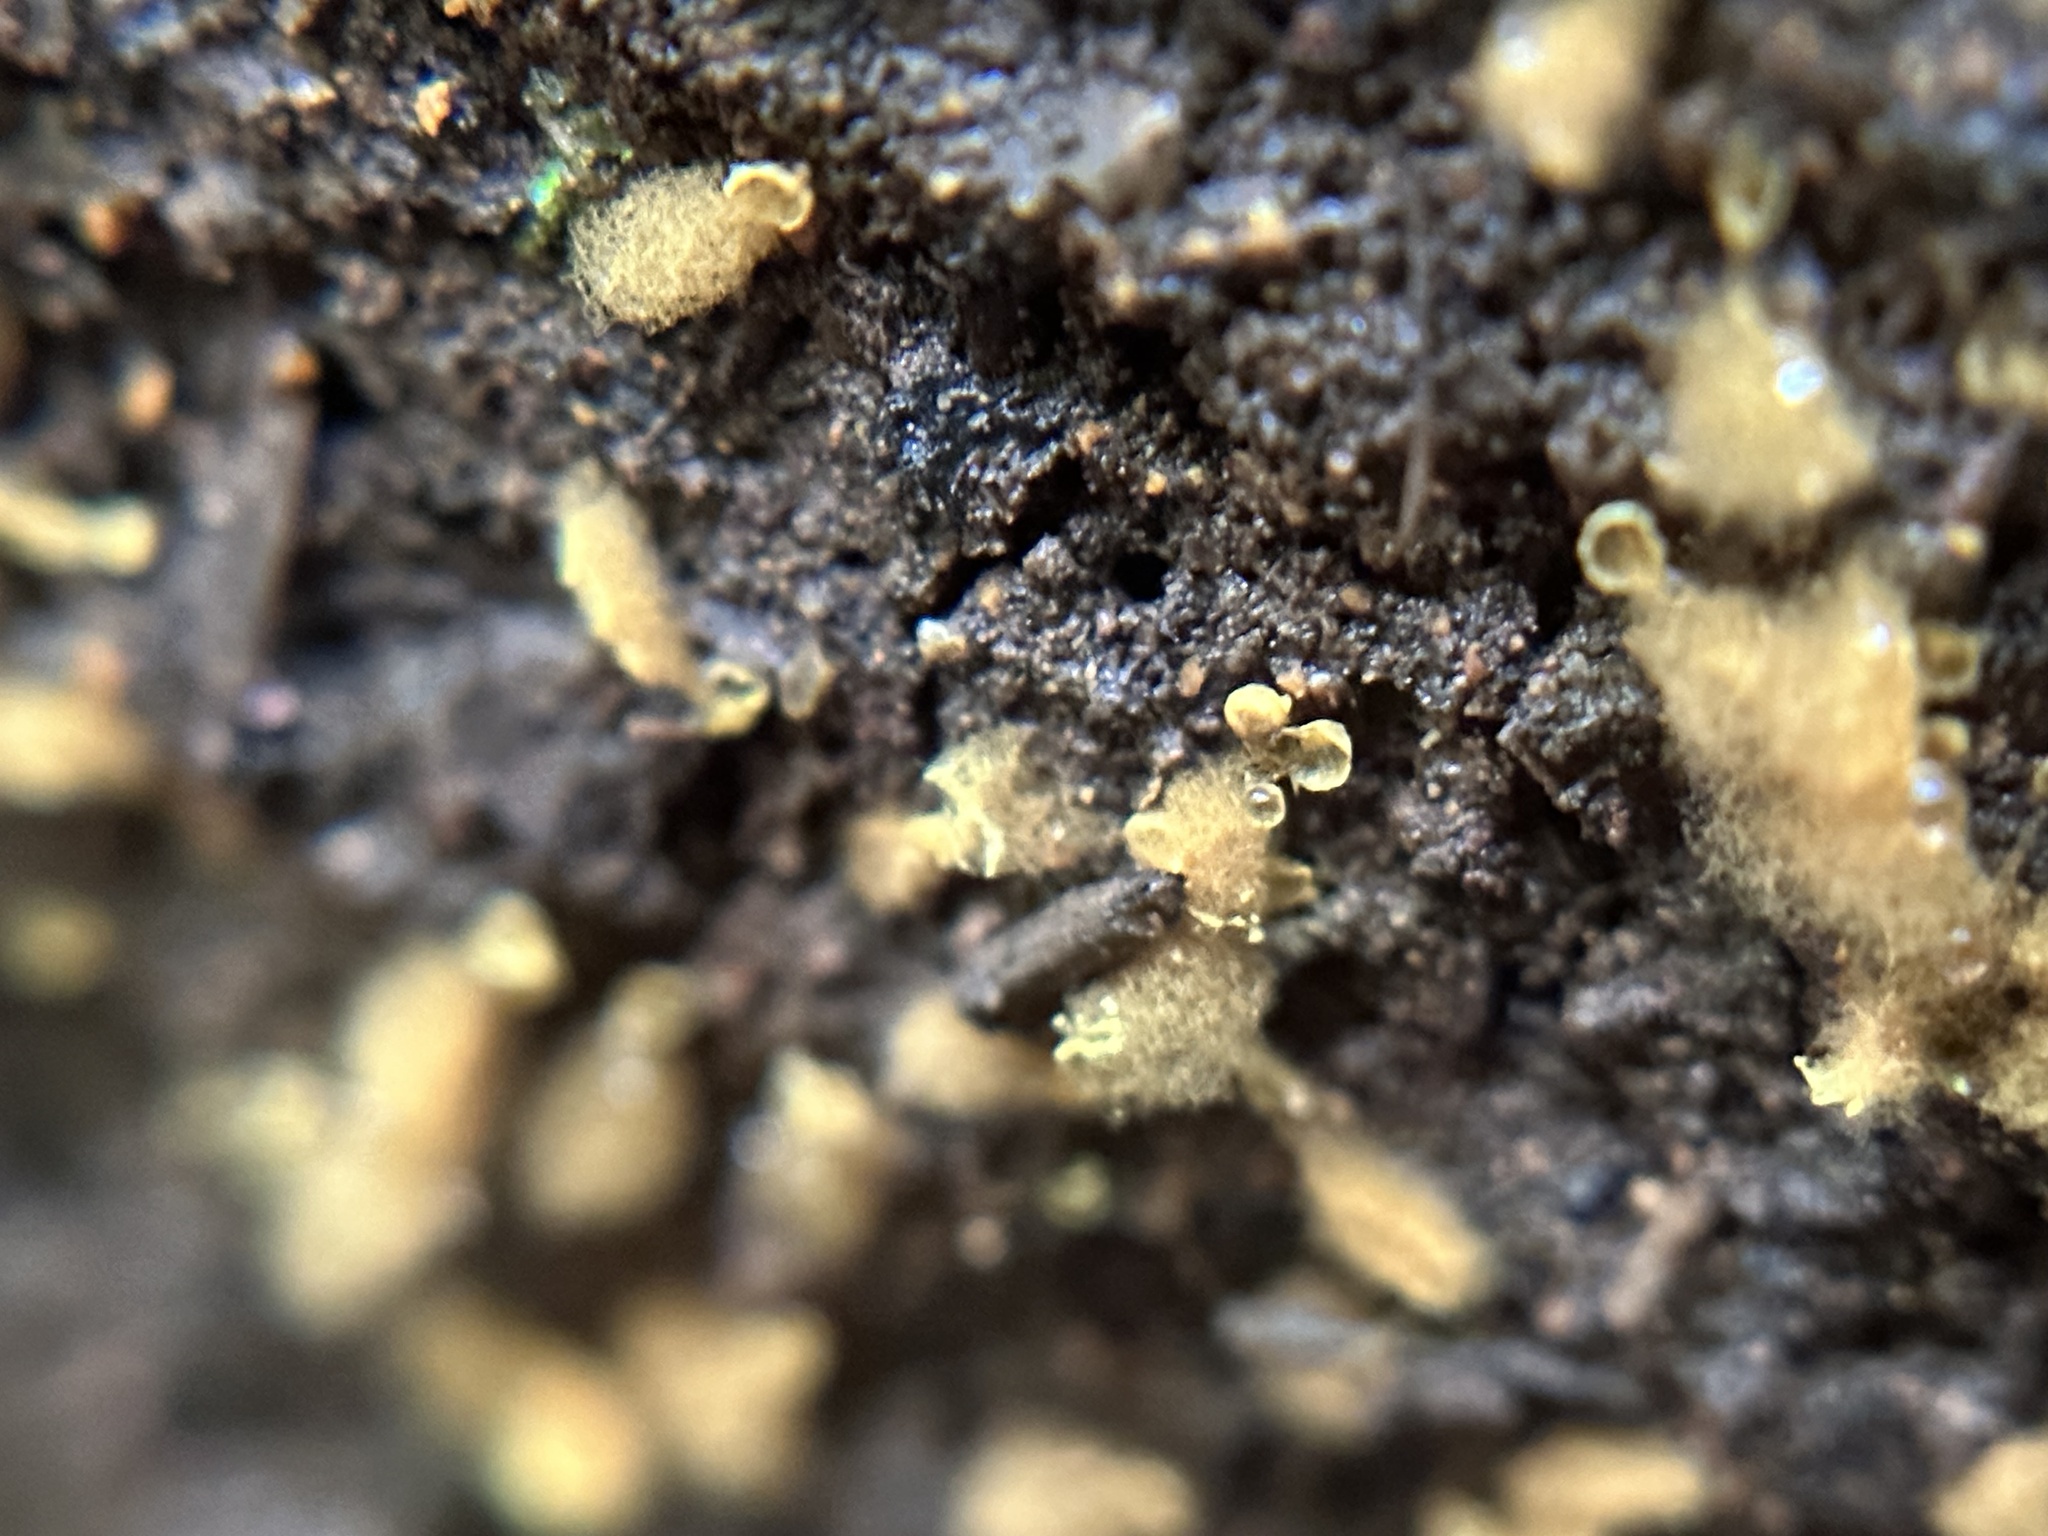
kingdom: Protozoa
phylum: Mycetozoa
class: Myxomycetes
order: Trichiales
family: Arcyriaceae
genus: Hemitrichia
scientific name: Hemitrichia calyculata
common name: Push pin slime mold
